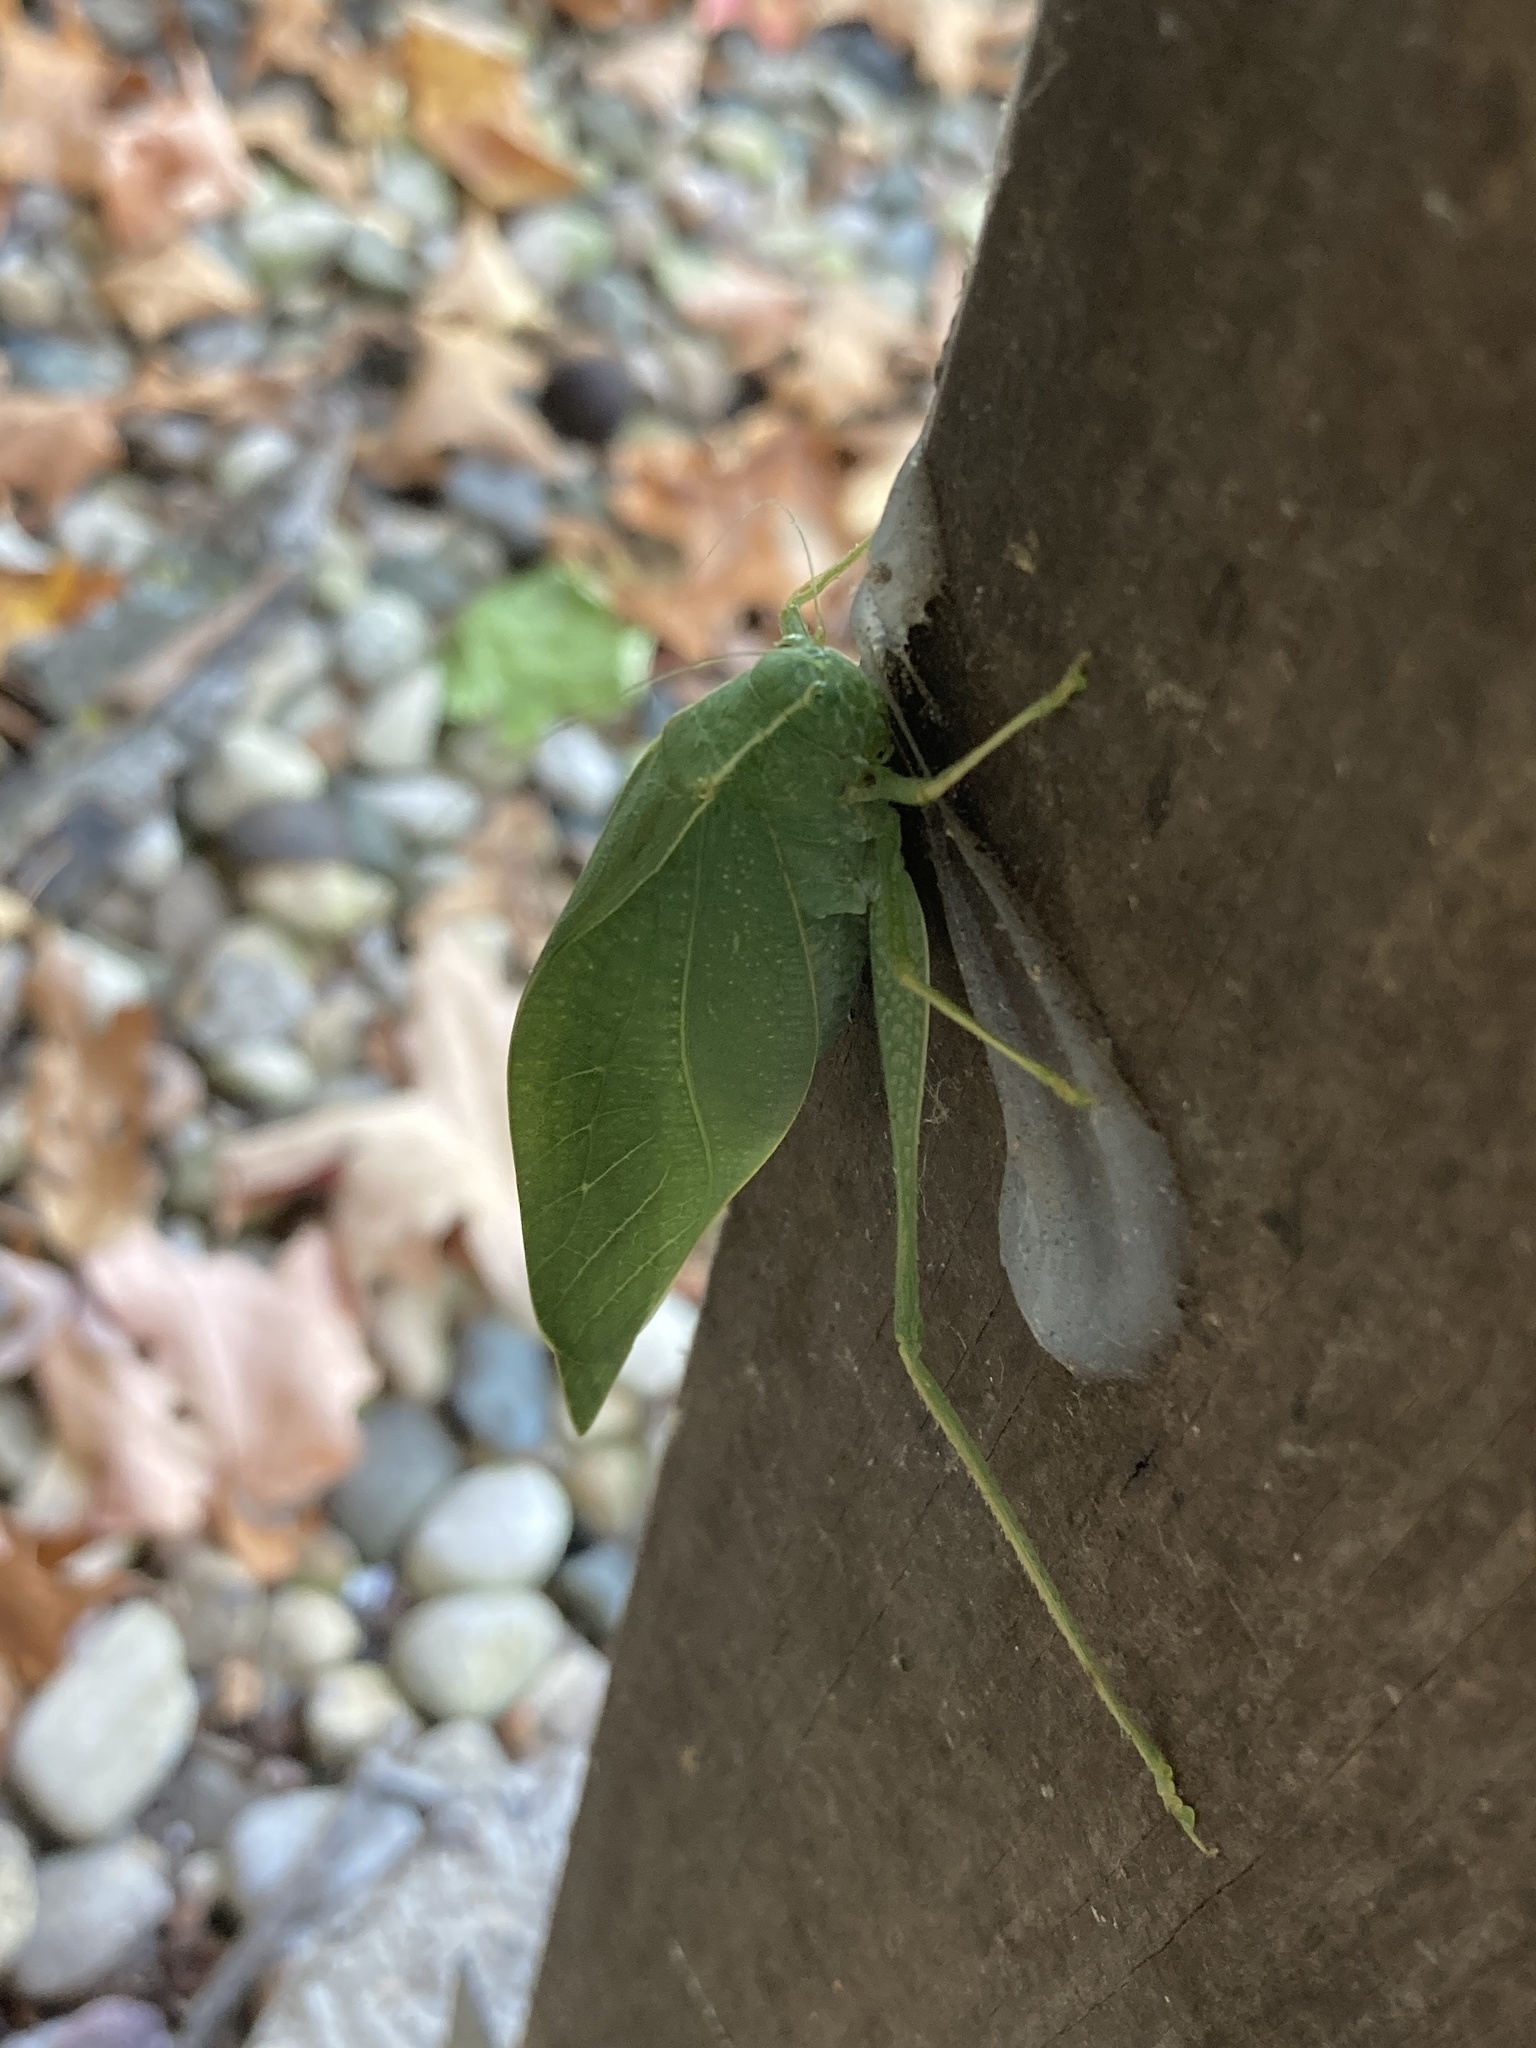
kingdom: Animalia
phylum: Arthropoda
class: Insecta
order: Orthoptera
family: Tettigoniidae
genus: Microcentrum
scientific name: Microcentrum rhombifolium
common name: Broad-winged katydid
